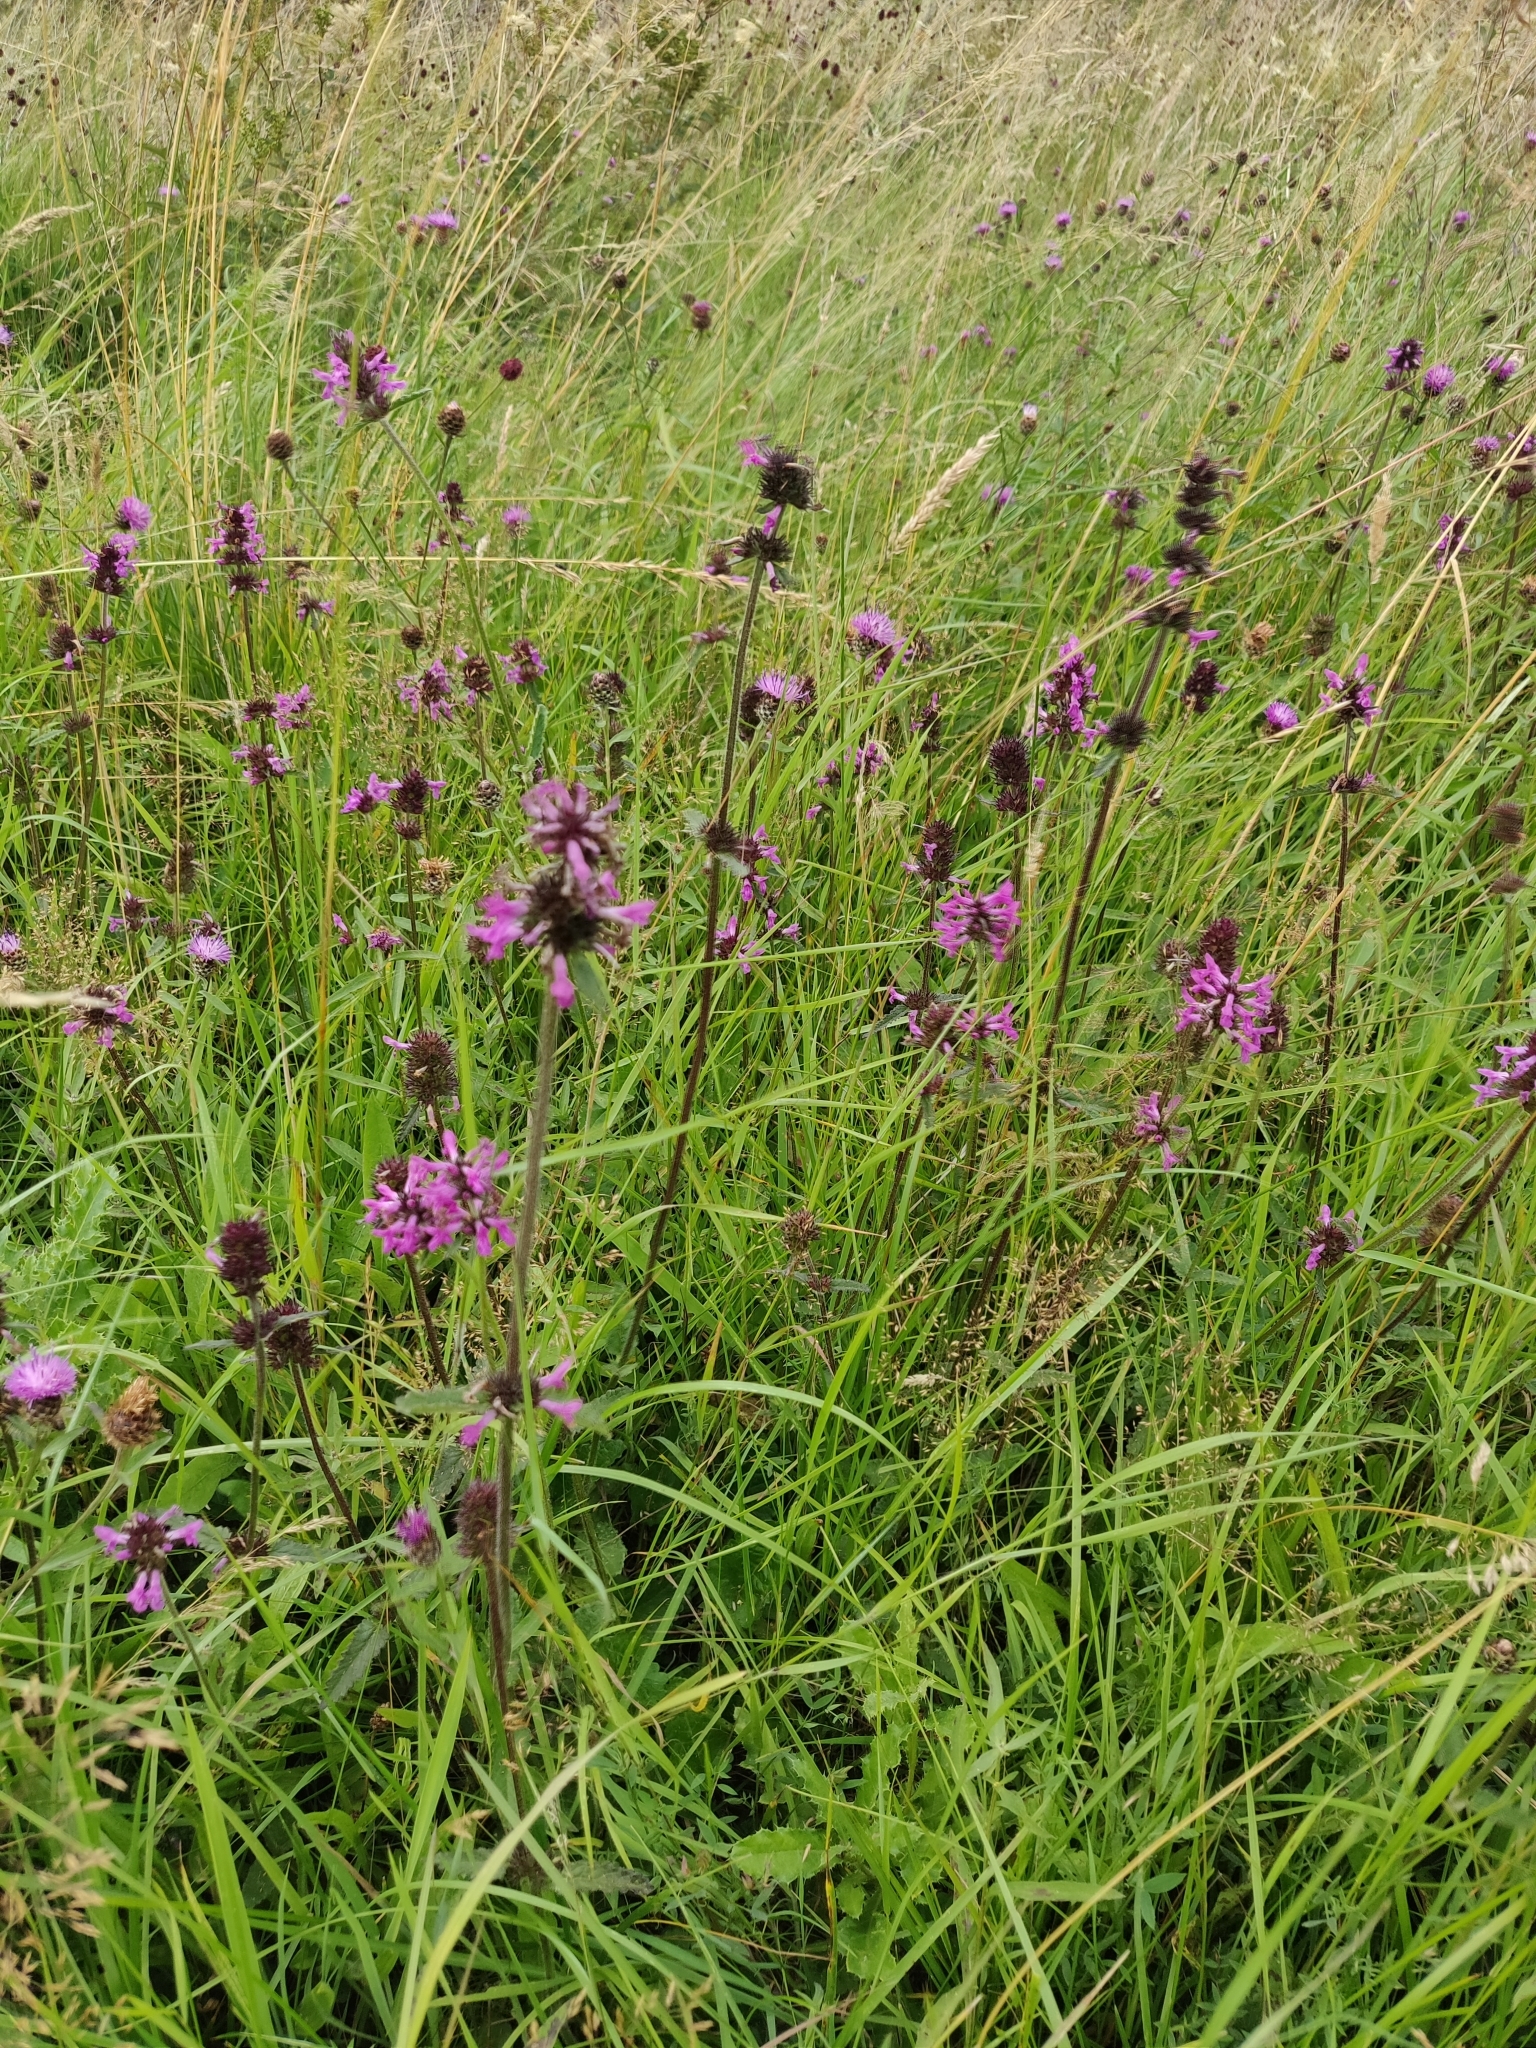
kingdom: Plantae
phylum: Tracheophyta
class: Magnoliopsida
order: Lamiales
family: Lamiaceae
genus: Betonica
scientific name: Betonica officinalis
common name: Bishop's-wort
